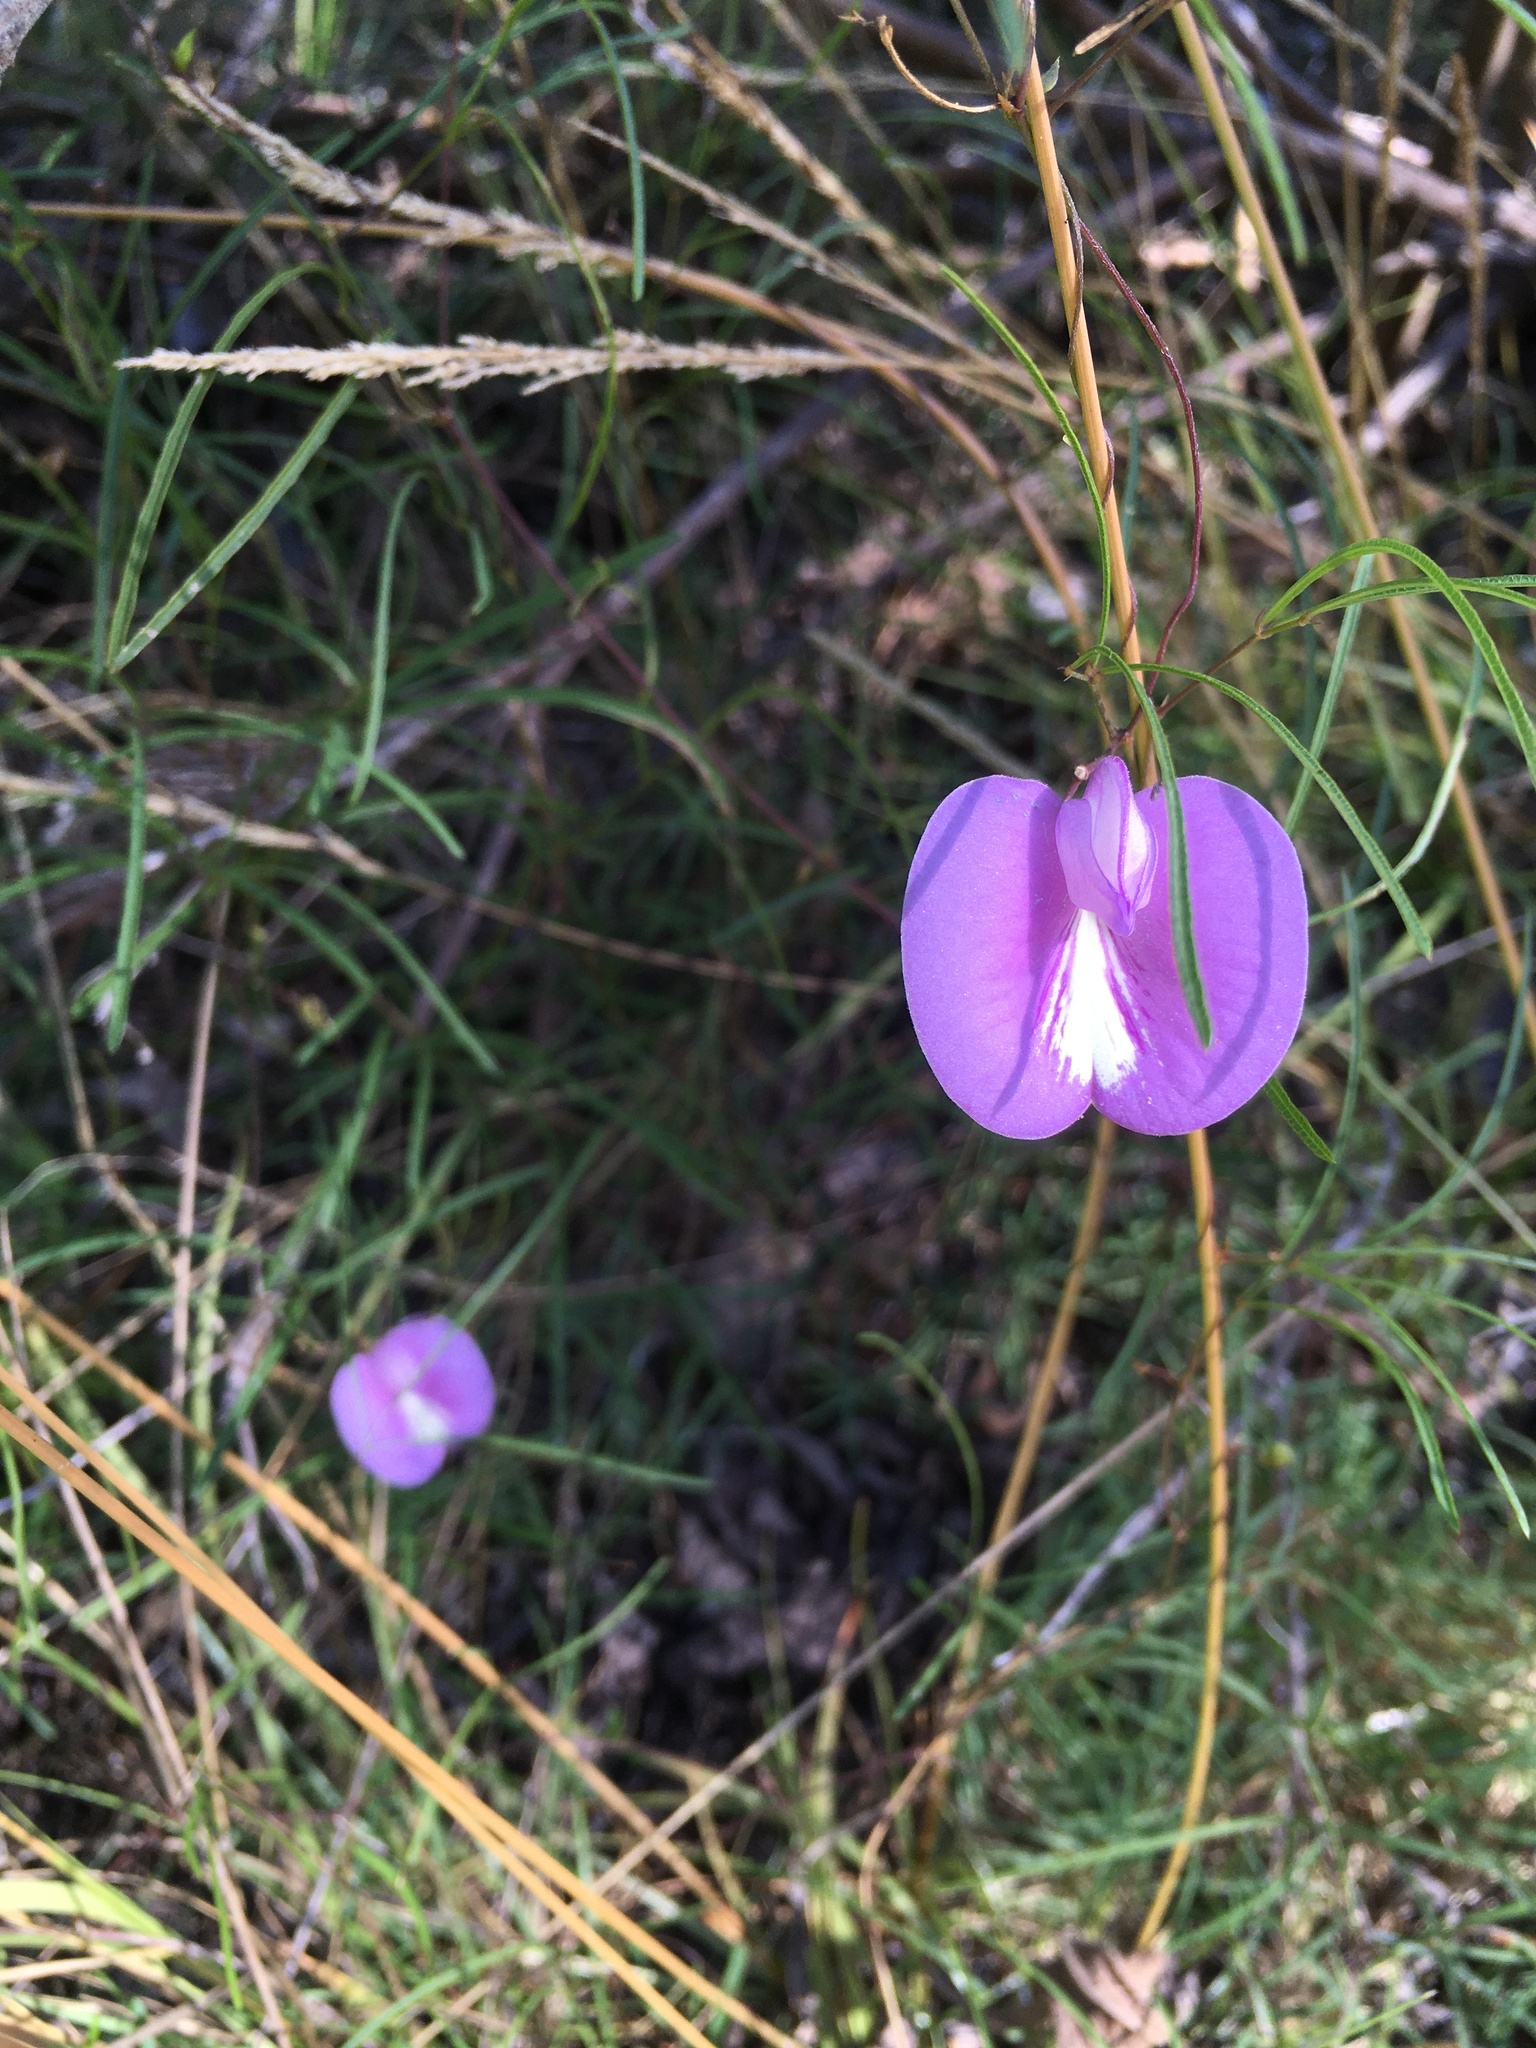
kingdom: Plantae
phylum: Tracheophyta
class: Magnoliopsida
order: Fabales
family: Fabaceae
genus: Centrosema
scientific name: Centrosema virginianum
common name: Butterfly-pea
